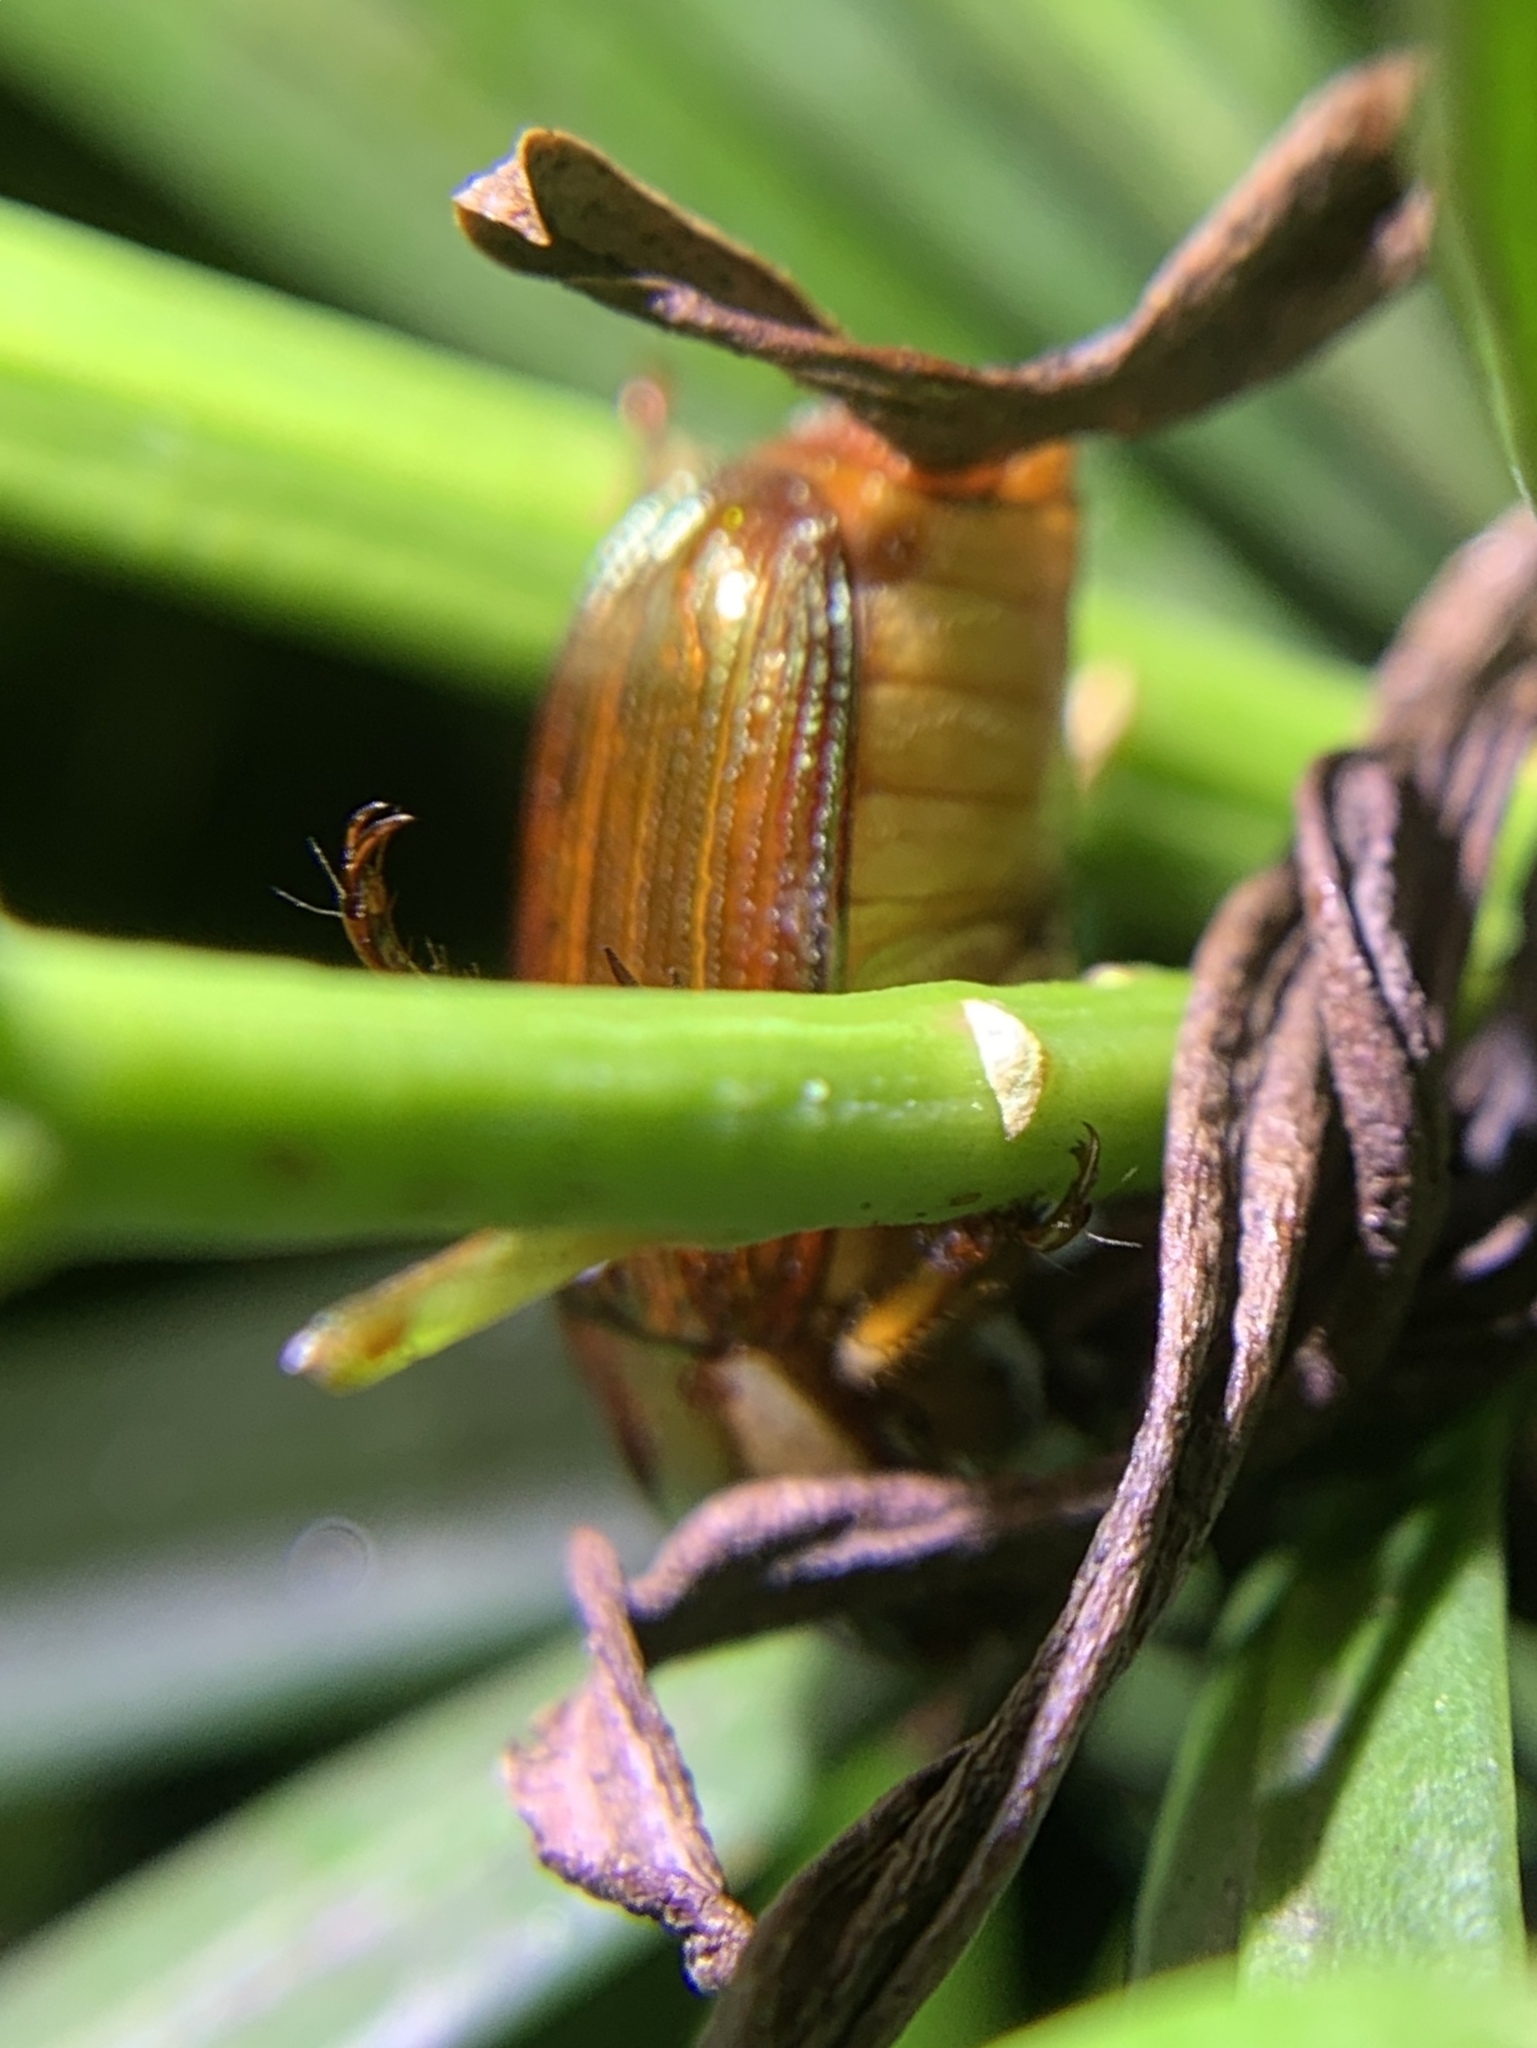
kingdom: Animalia
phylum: Arthropoda
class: Insecta
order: Coleoptera
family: Scarabaeidae
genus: Callistethus
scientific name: Callistethus marginatus
